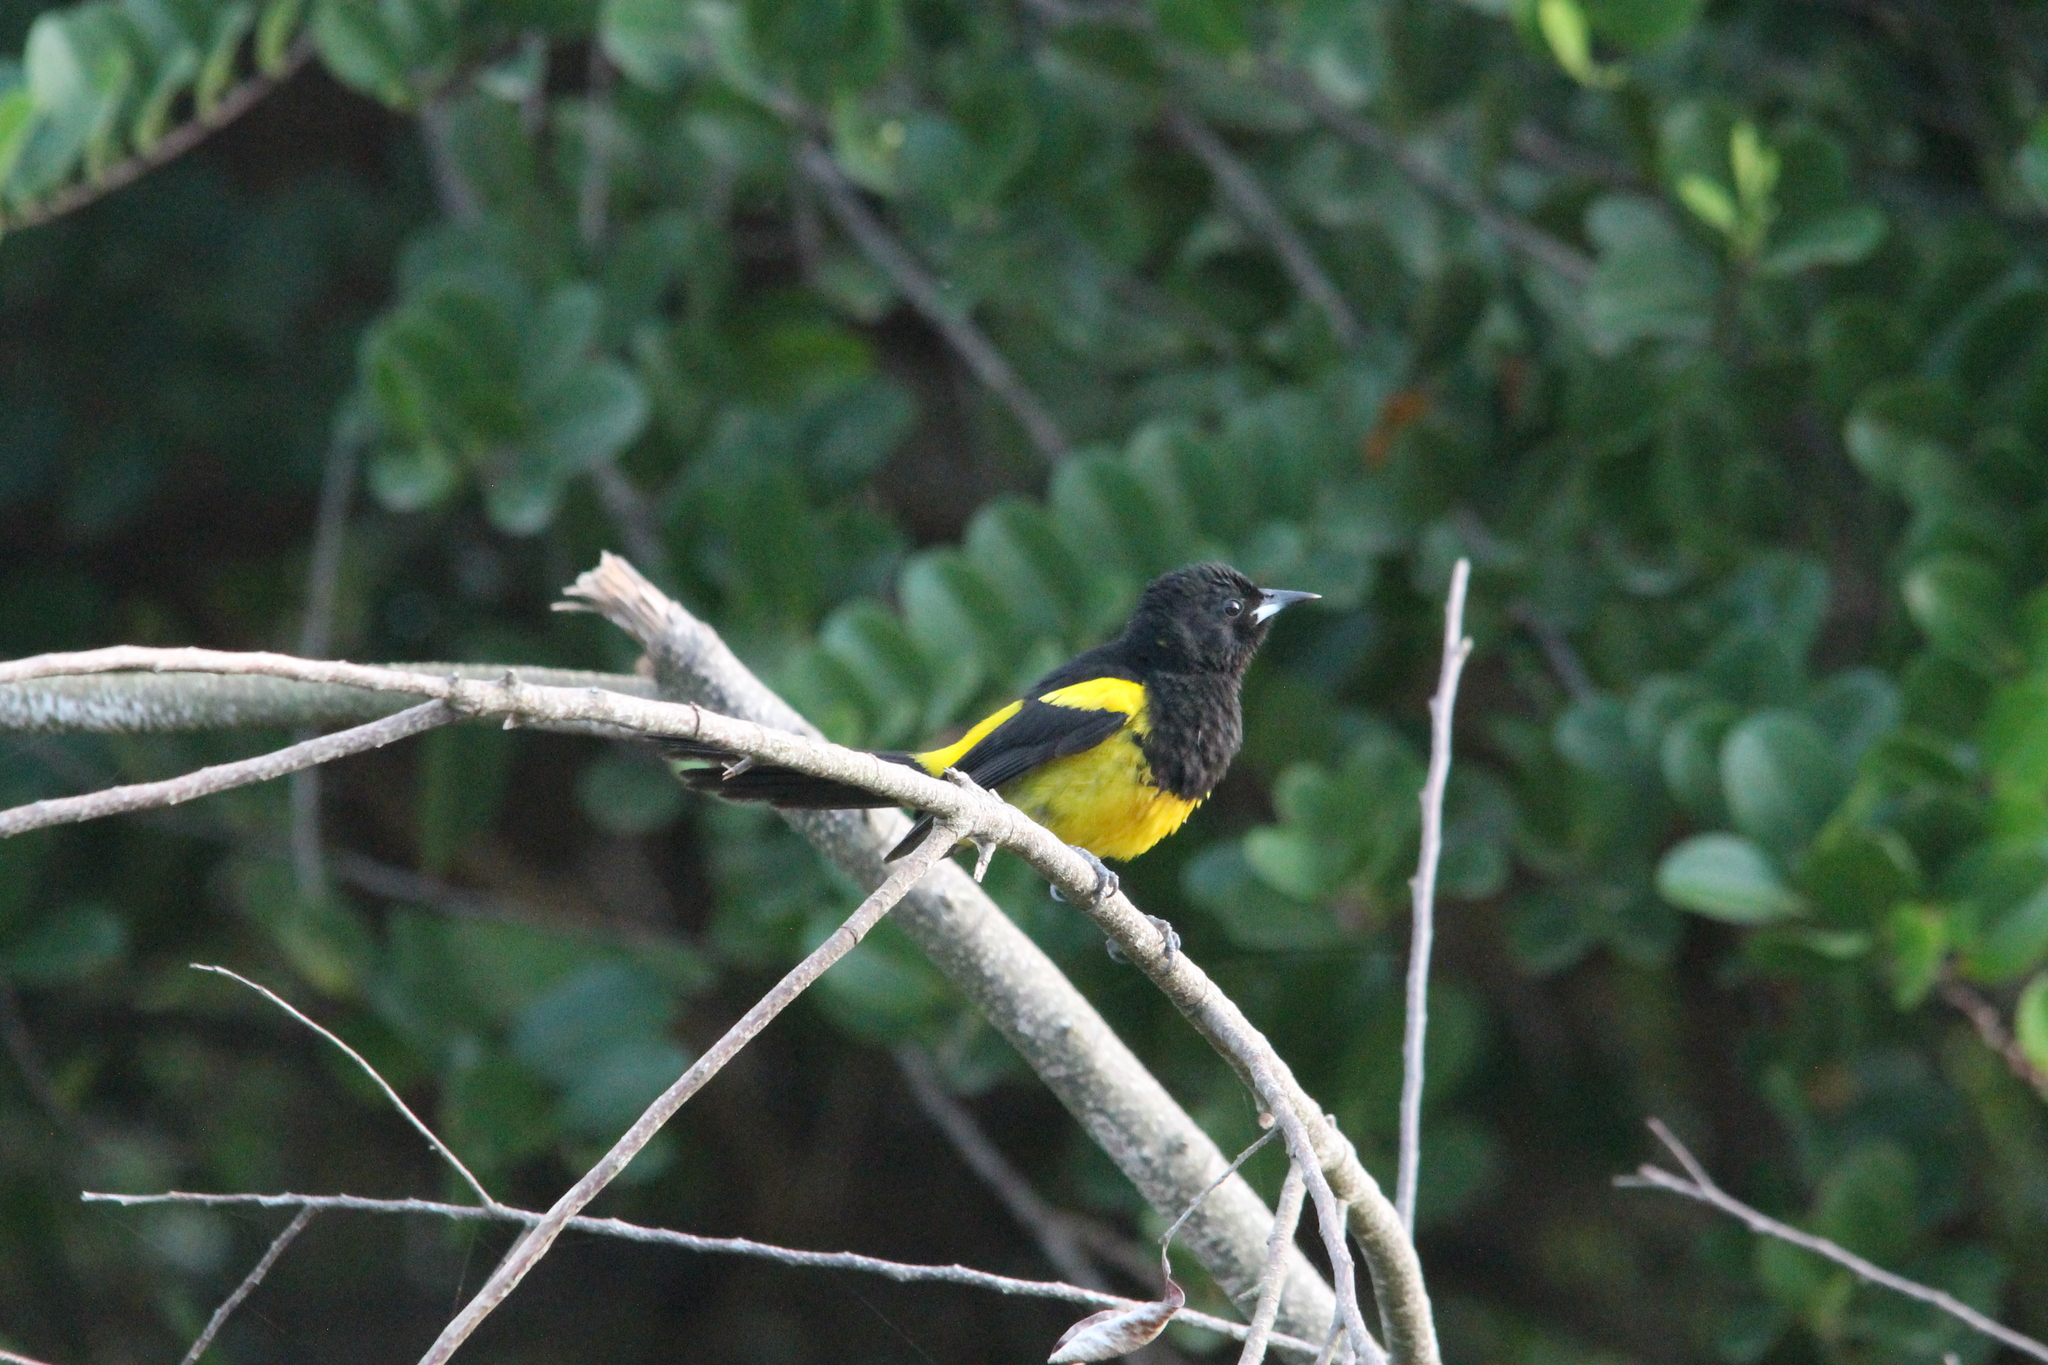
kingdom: Animalia
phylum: Chordata
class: Aves
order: Passeriformes
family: Icteridae
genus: Icterus
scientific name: Icterus prosthemelas
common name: Black-cowled oriole
